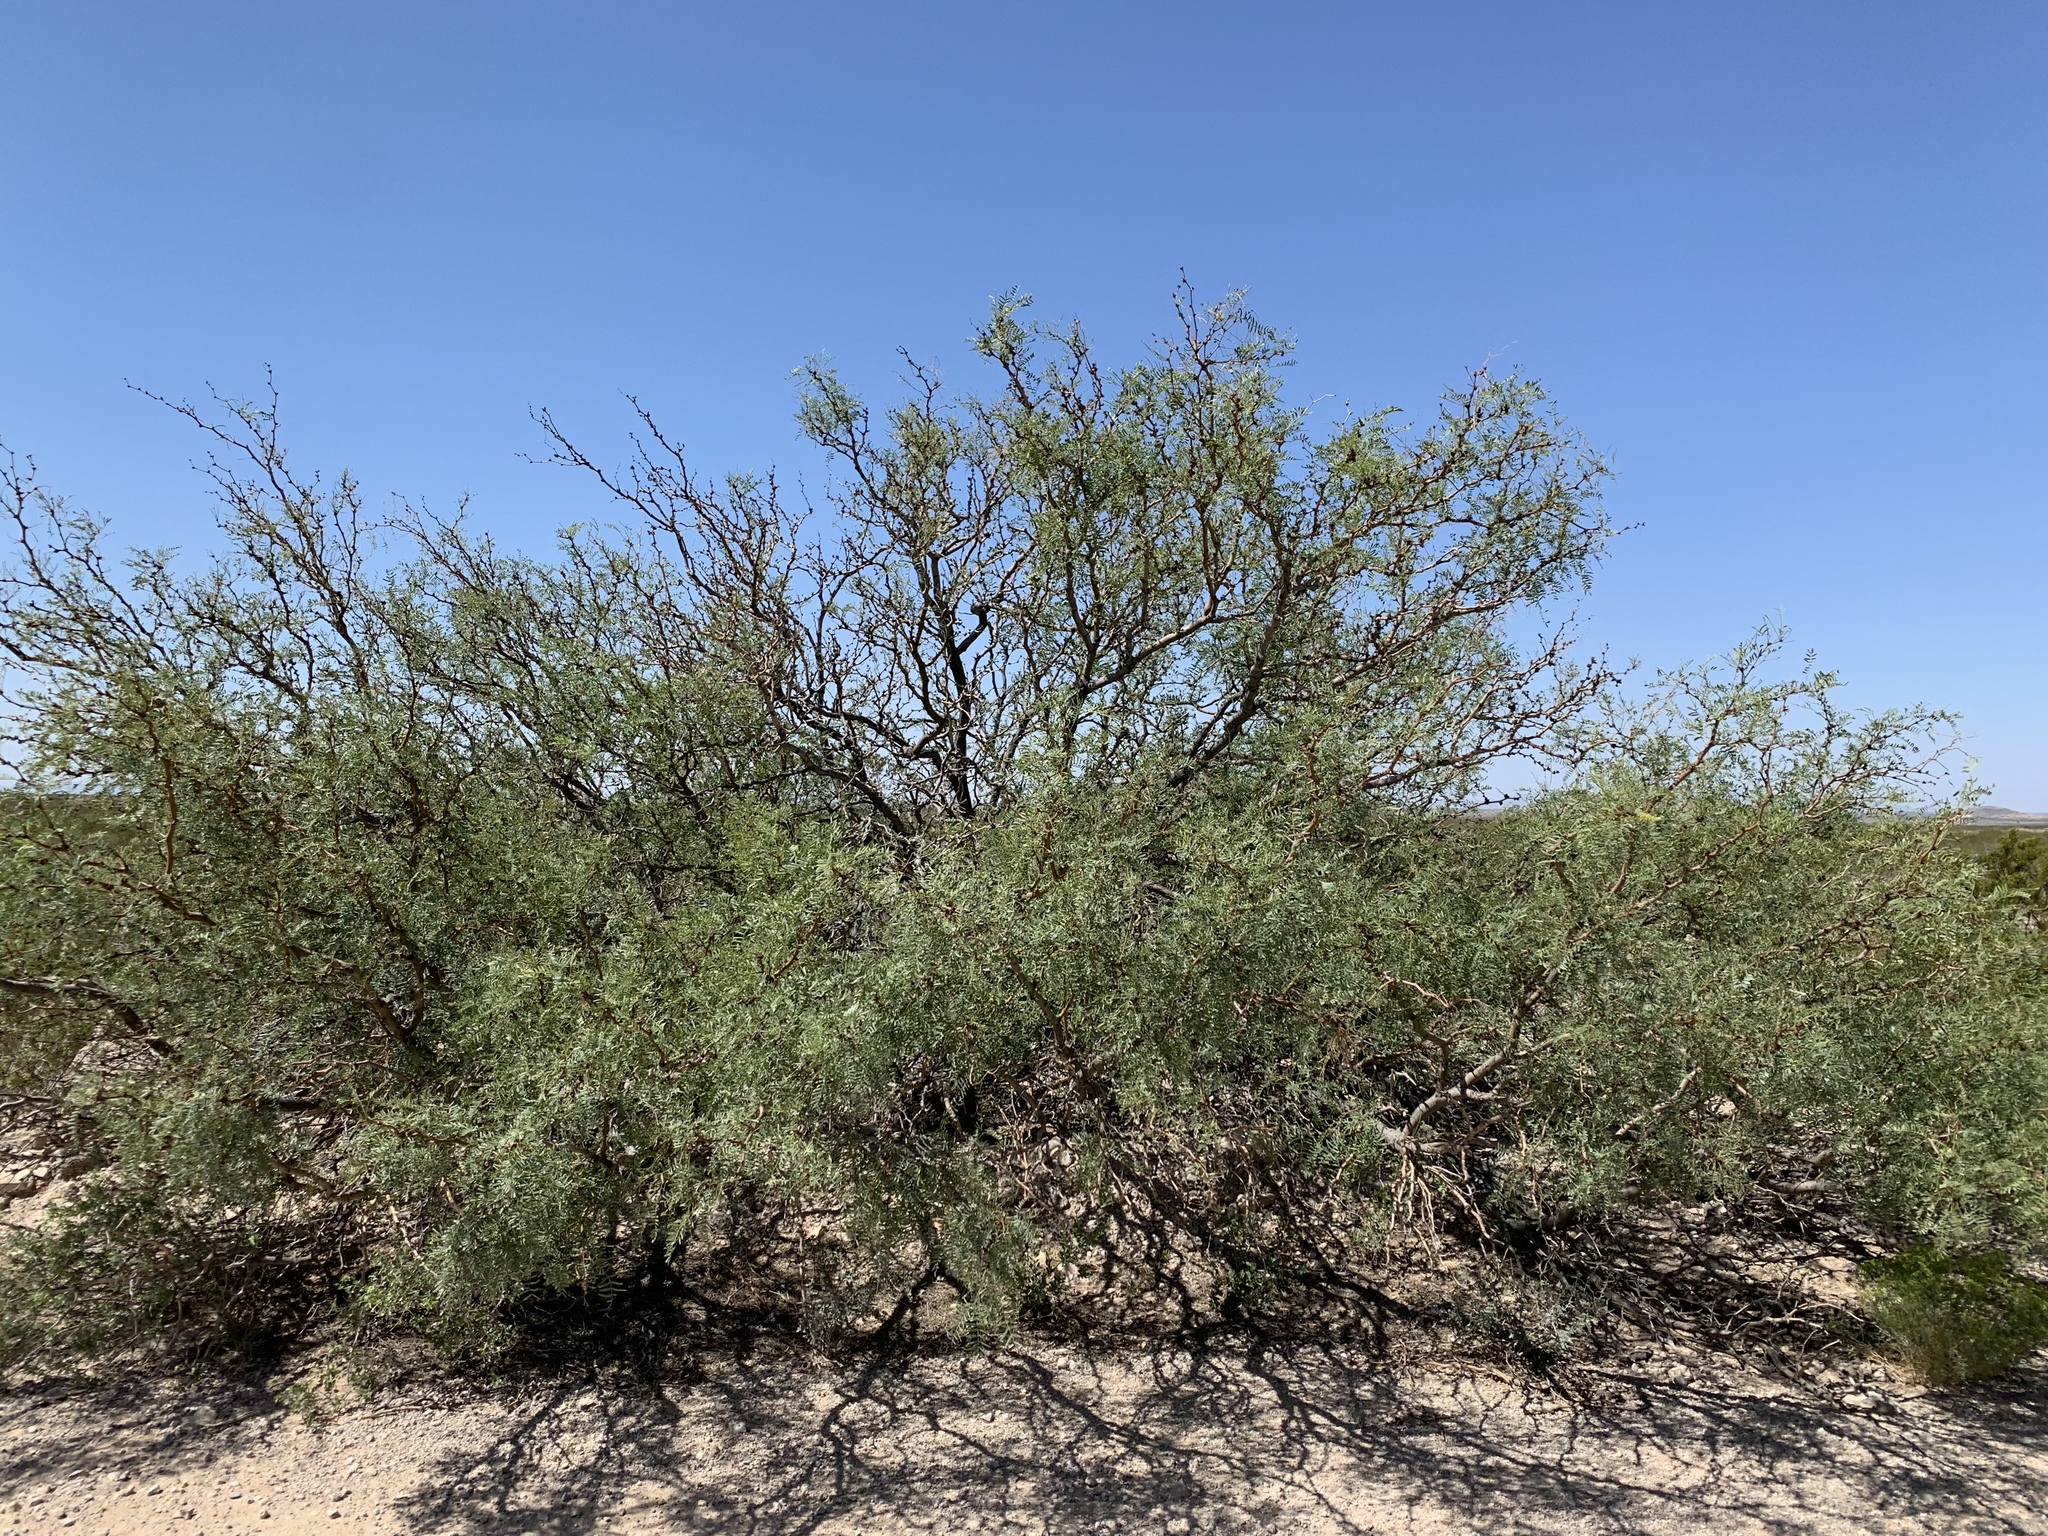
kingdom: Plantae
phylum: Tracheophyta
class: Magnoliopsida
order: Fabales
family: Fabaceae
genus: Prosopis
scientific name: Prosopis glandulosa
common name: Honey mesquite
